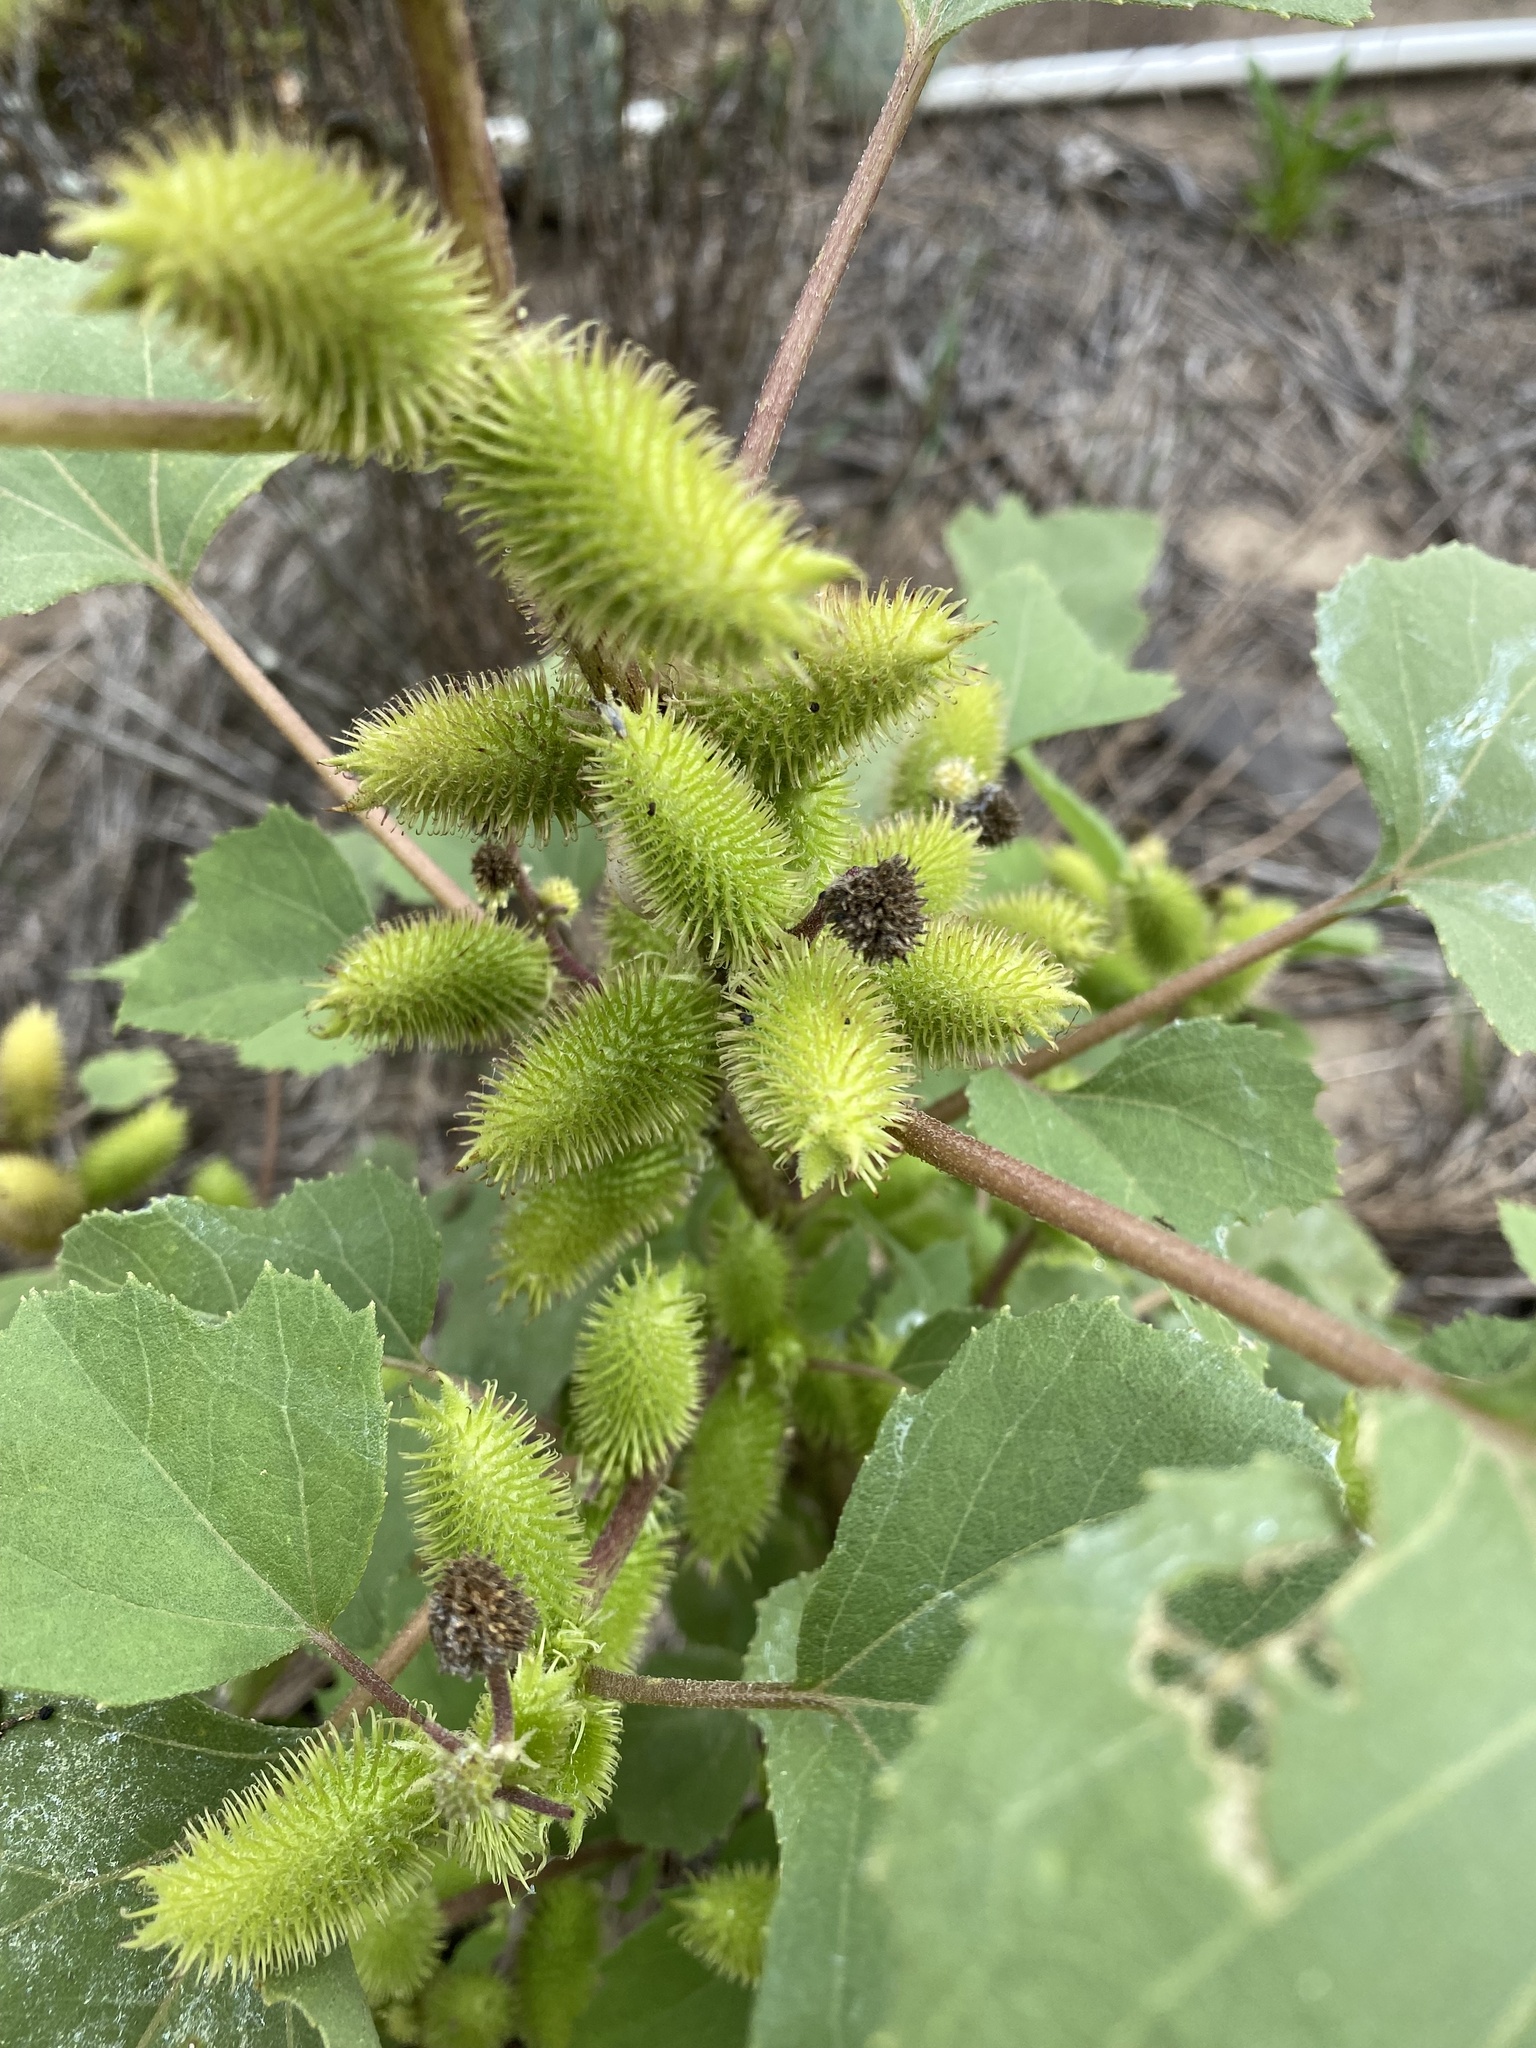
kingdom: Plantae
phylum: Tracheophyta
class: Magnoliopsida
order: Asterales
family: Asteraceae
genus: Xanthium
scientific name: Xanthium strumarium
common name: Rough cocklebur
